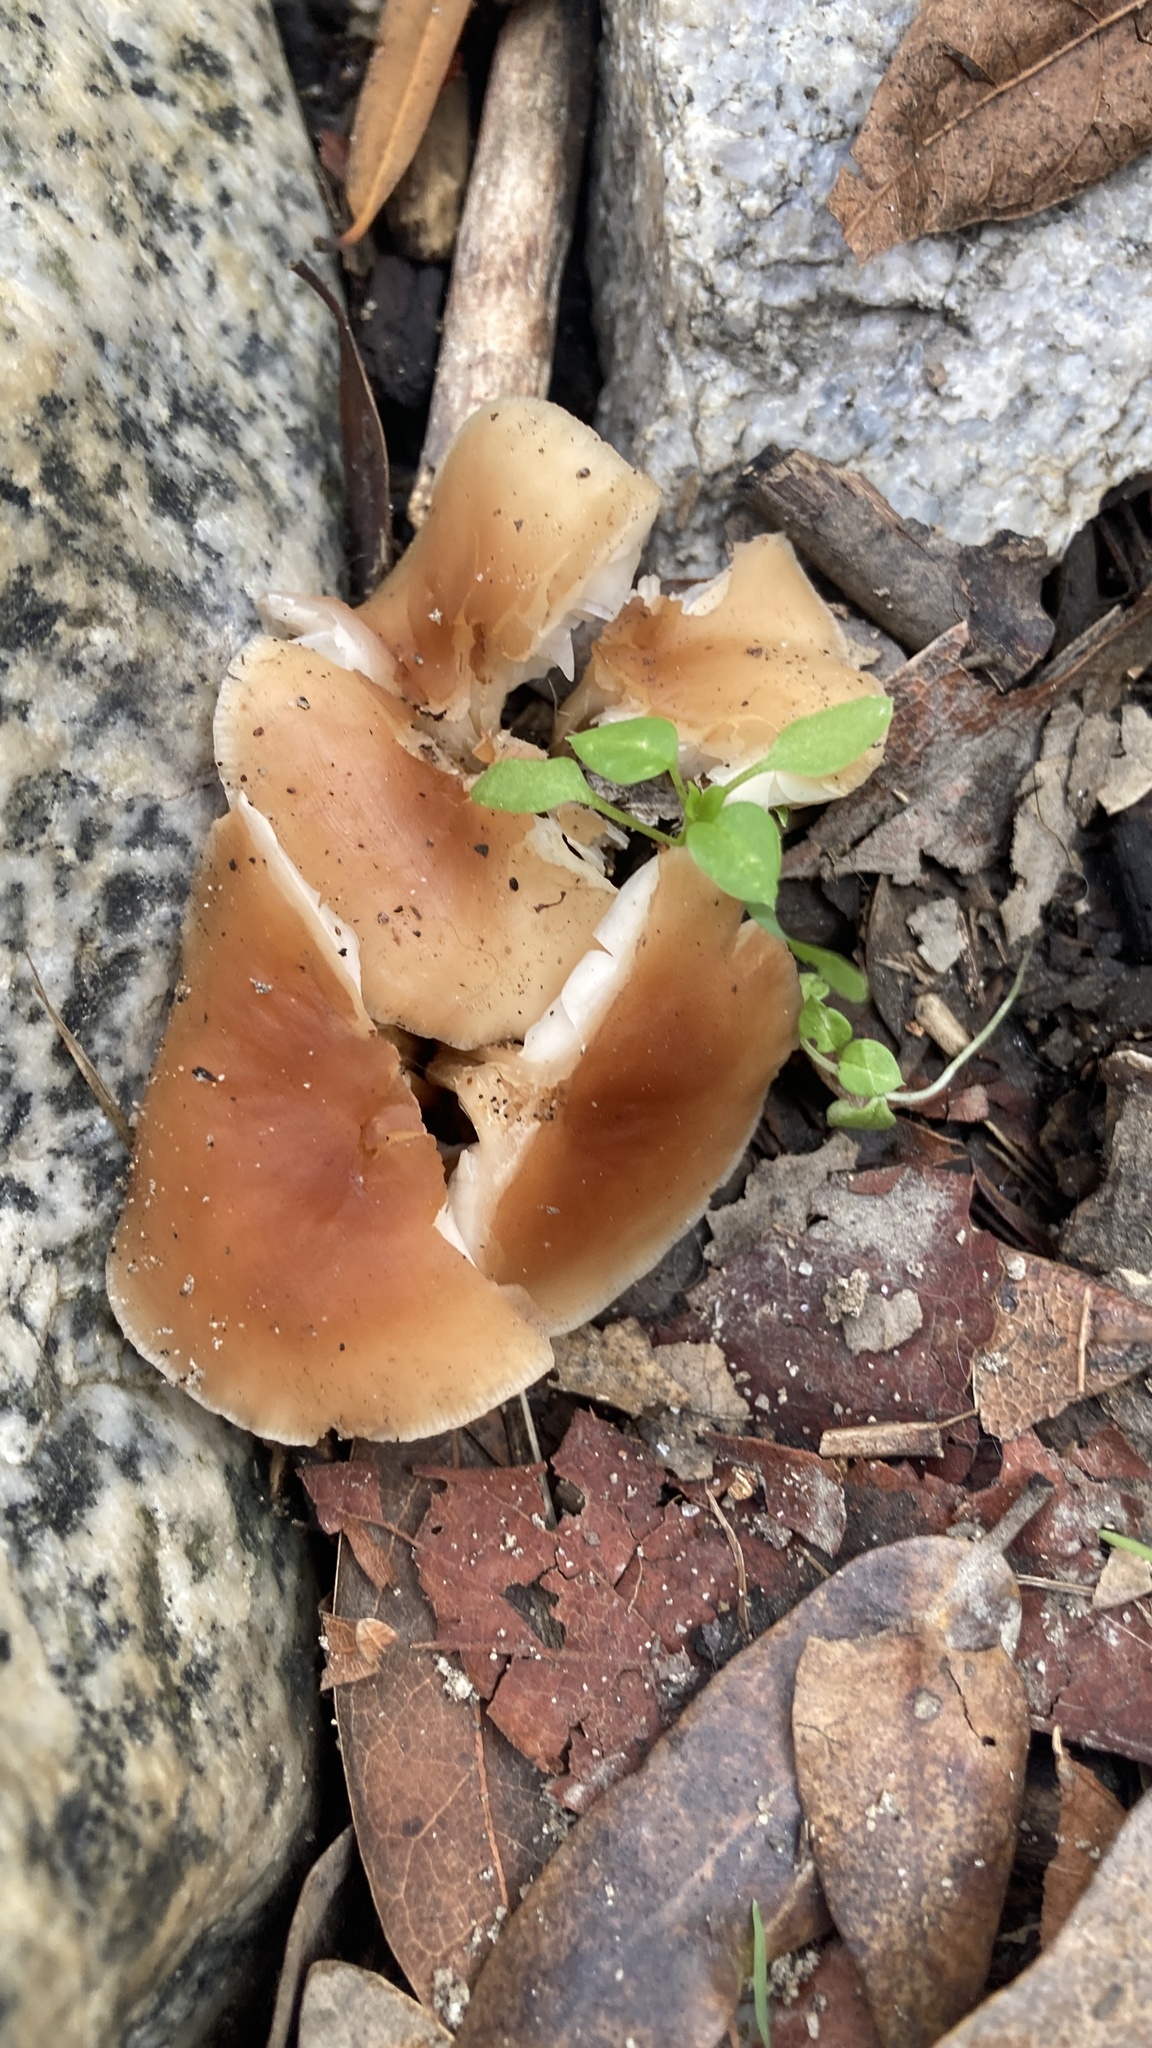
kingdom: Fungi
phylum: Basidiomycota
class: Agaricomycetes
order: Agaricales
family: Omphalotaceae
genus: Gymnopus
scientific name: Gymnopus dryophilus
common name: Penny top
